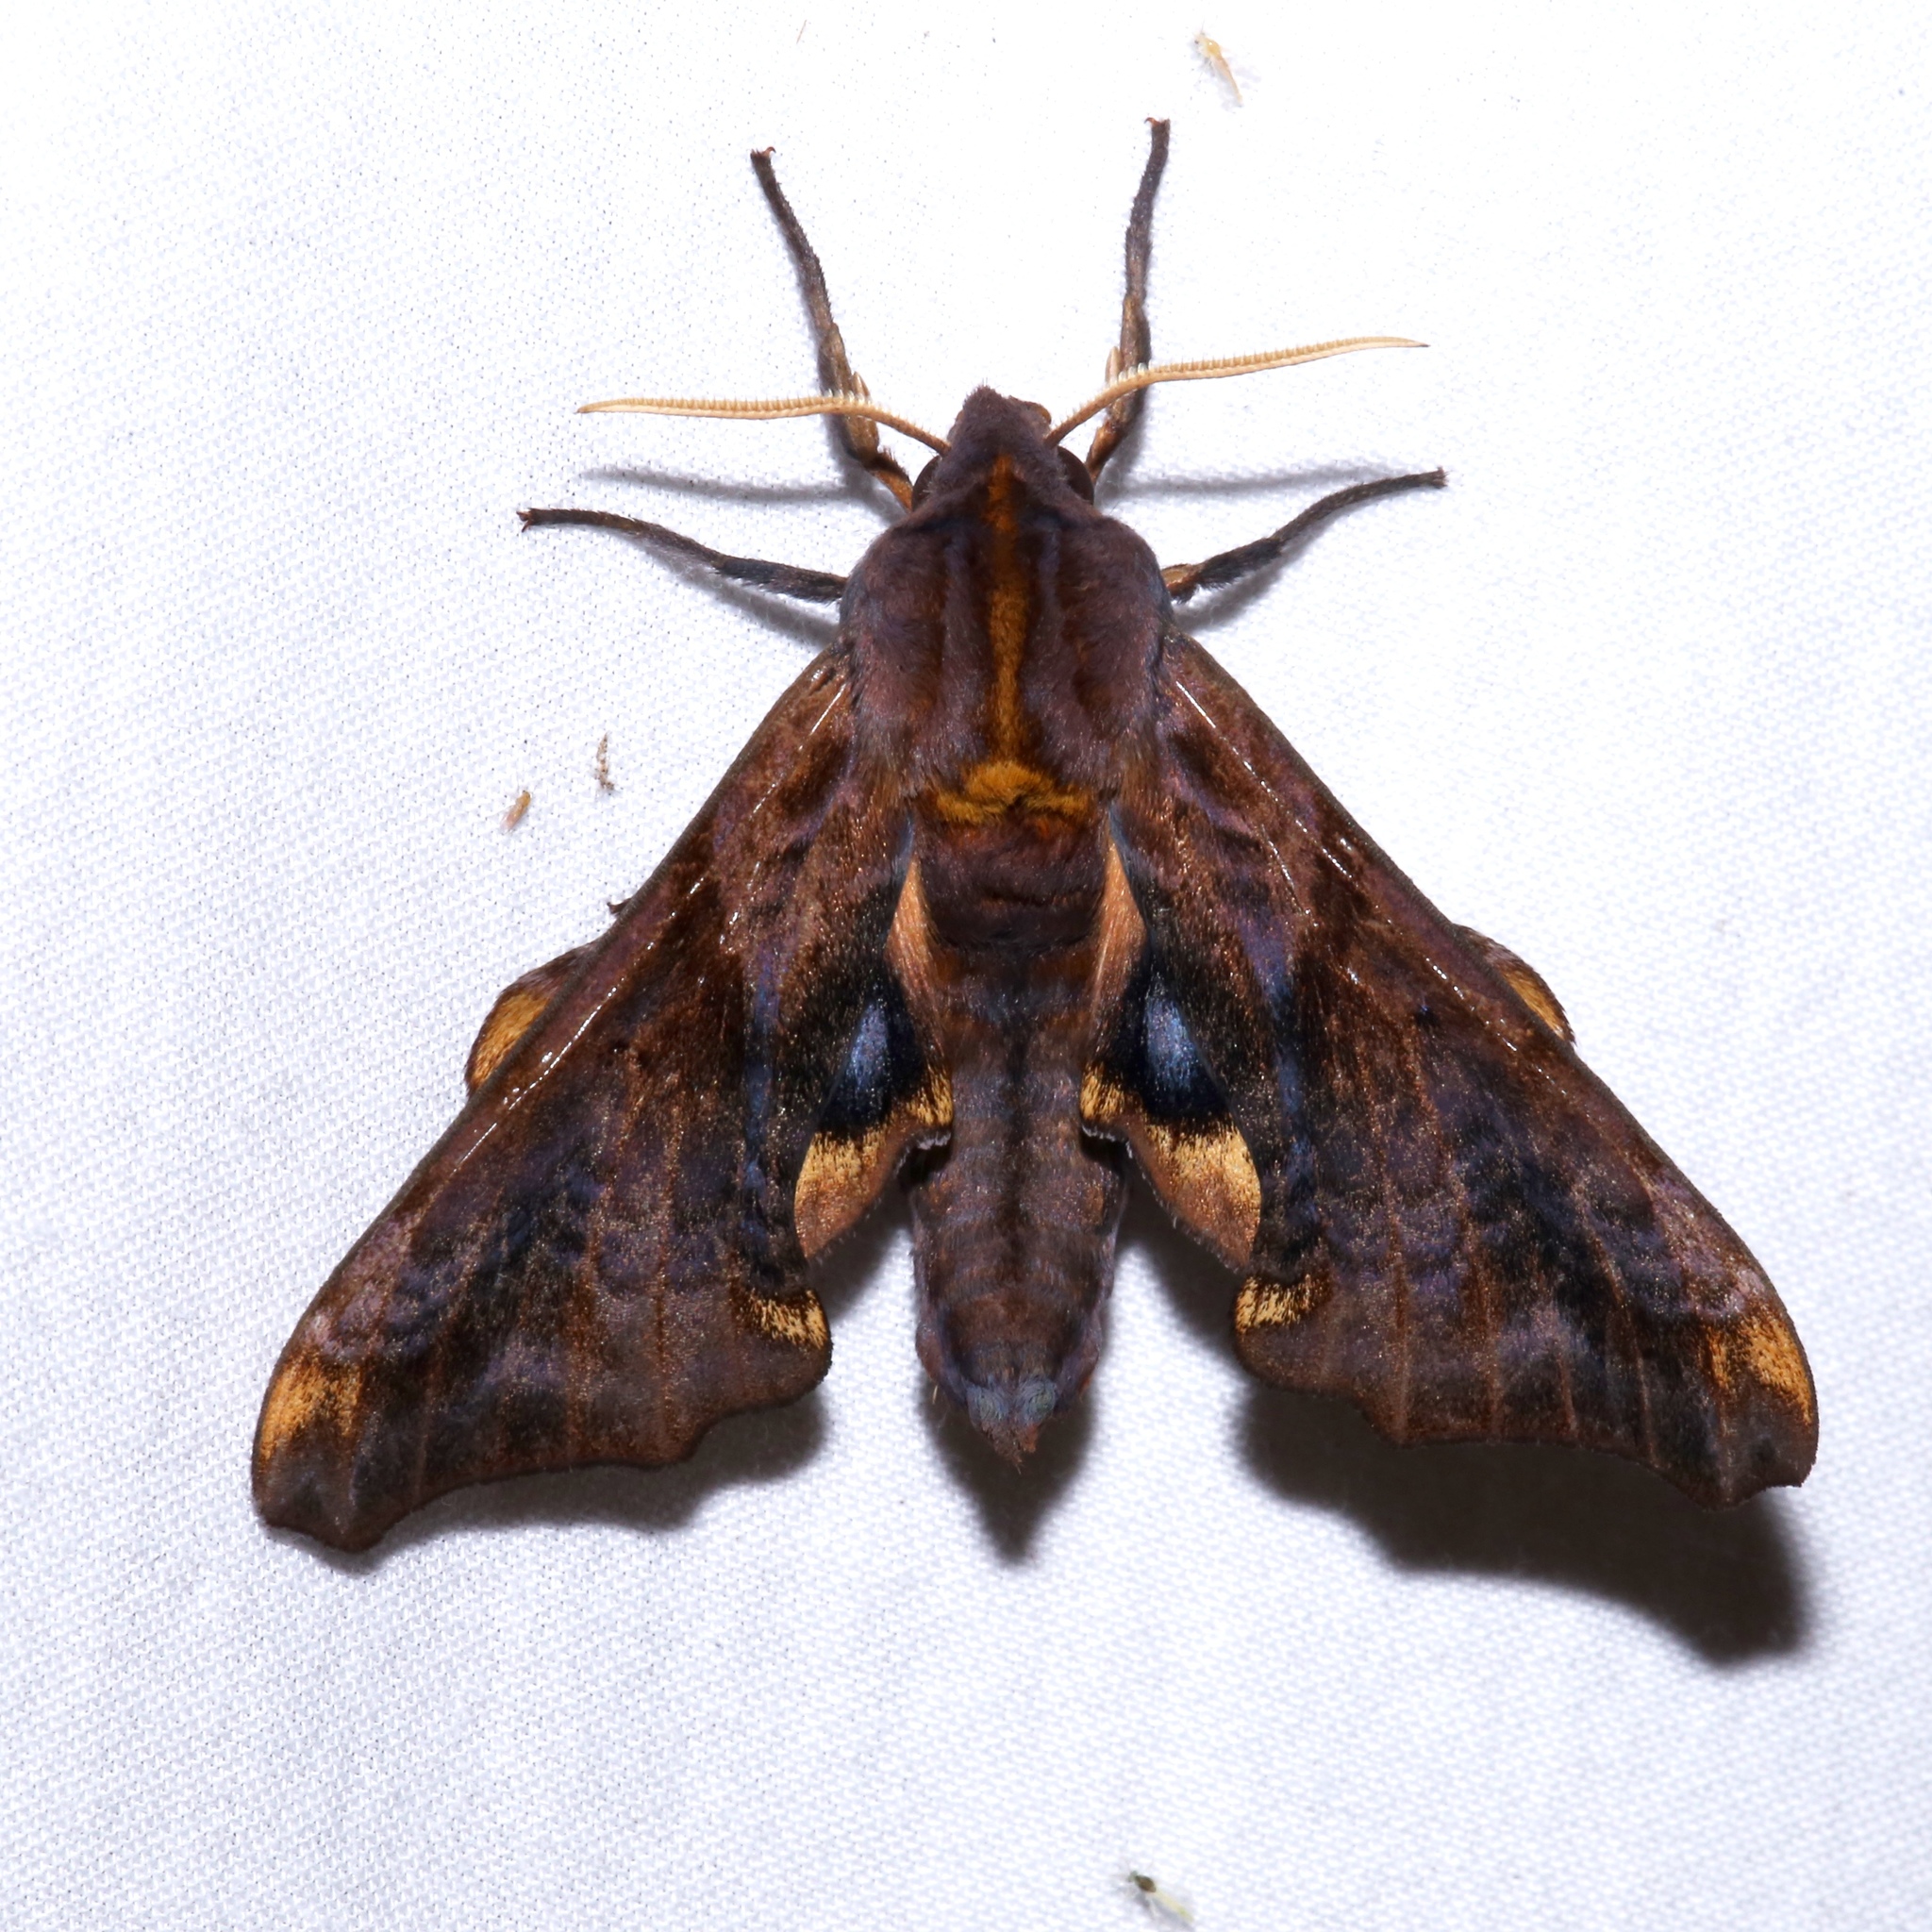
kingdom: Animalia
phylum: Arthropoda
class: Insecta
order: Lepidoptera
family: Sphingidae
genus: Paonias
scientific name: Paonias myops
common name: Small-eyed sphinx
